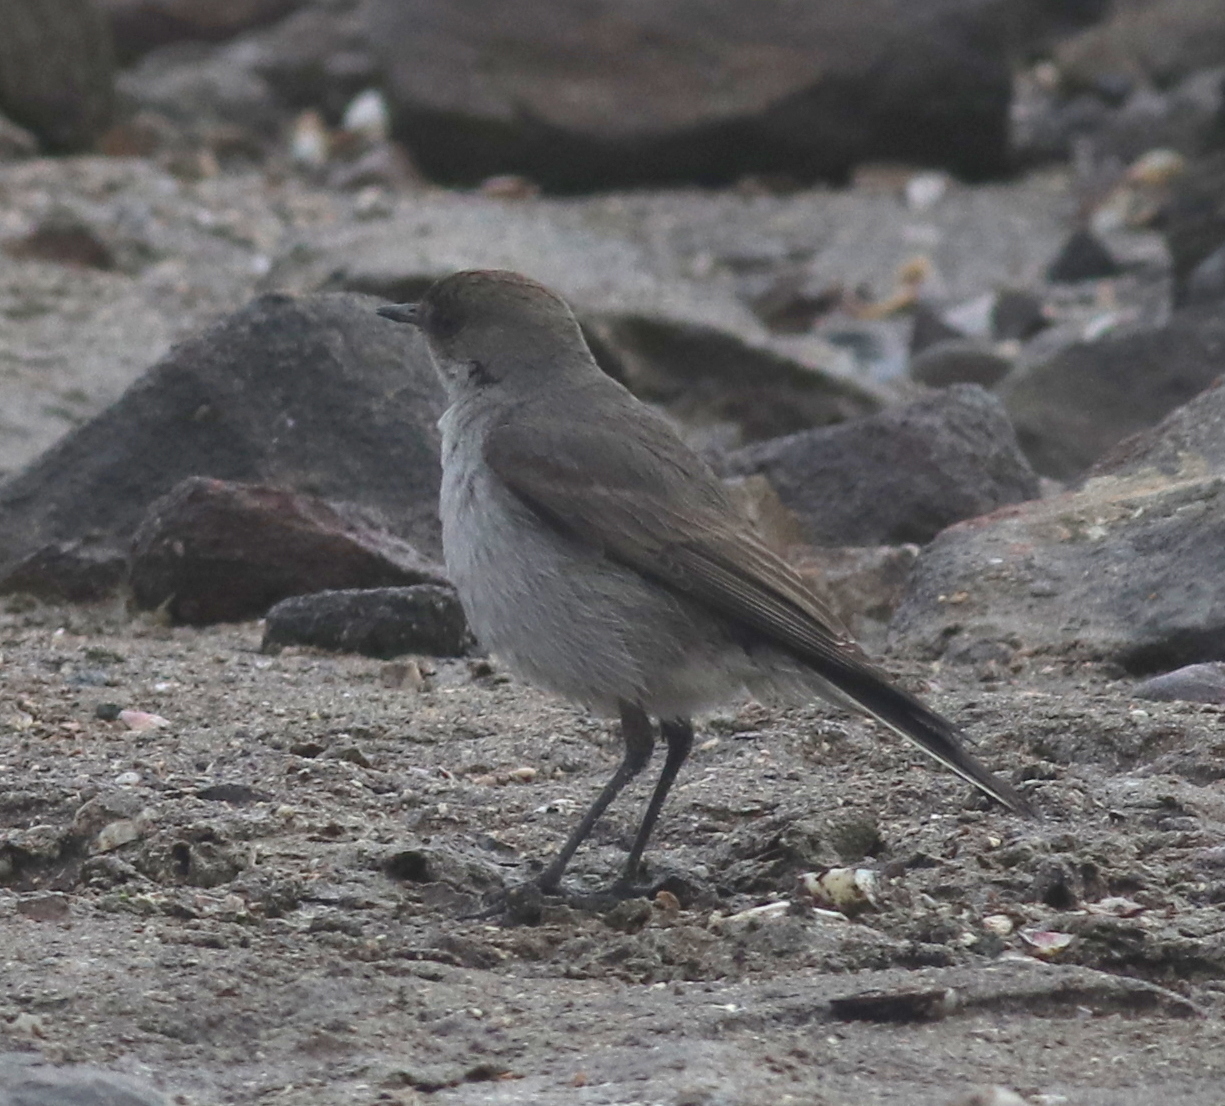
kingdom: Animalia
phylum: Chordata
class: Aves
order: Passeriformes
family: Tyrannidae
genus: Muscisaxicola
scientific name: Muscisaxicola maclovianus
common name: Dark-faced ground tyrant
